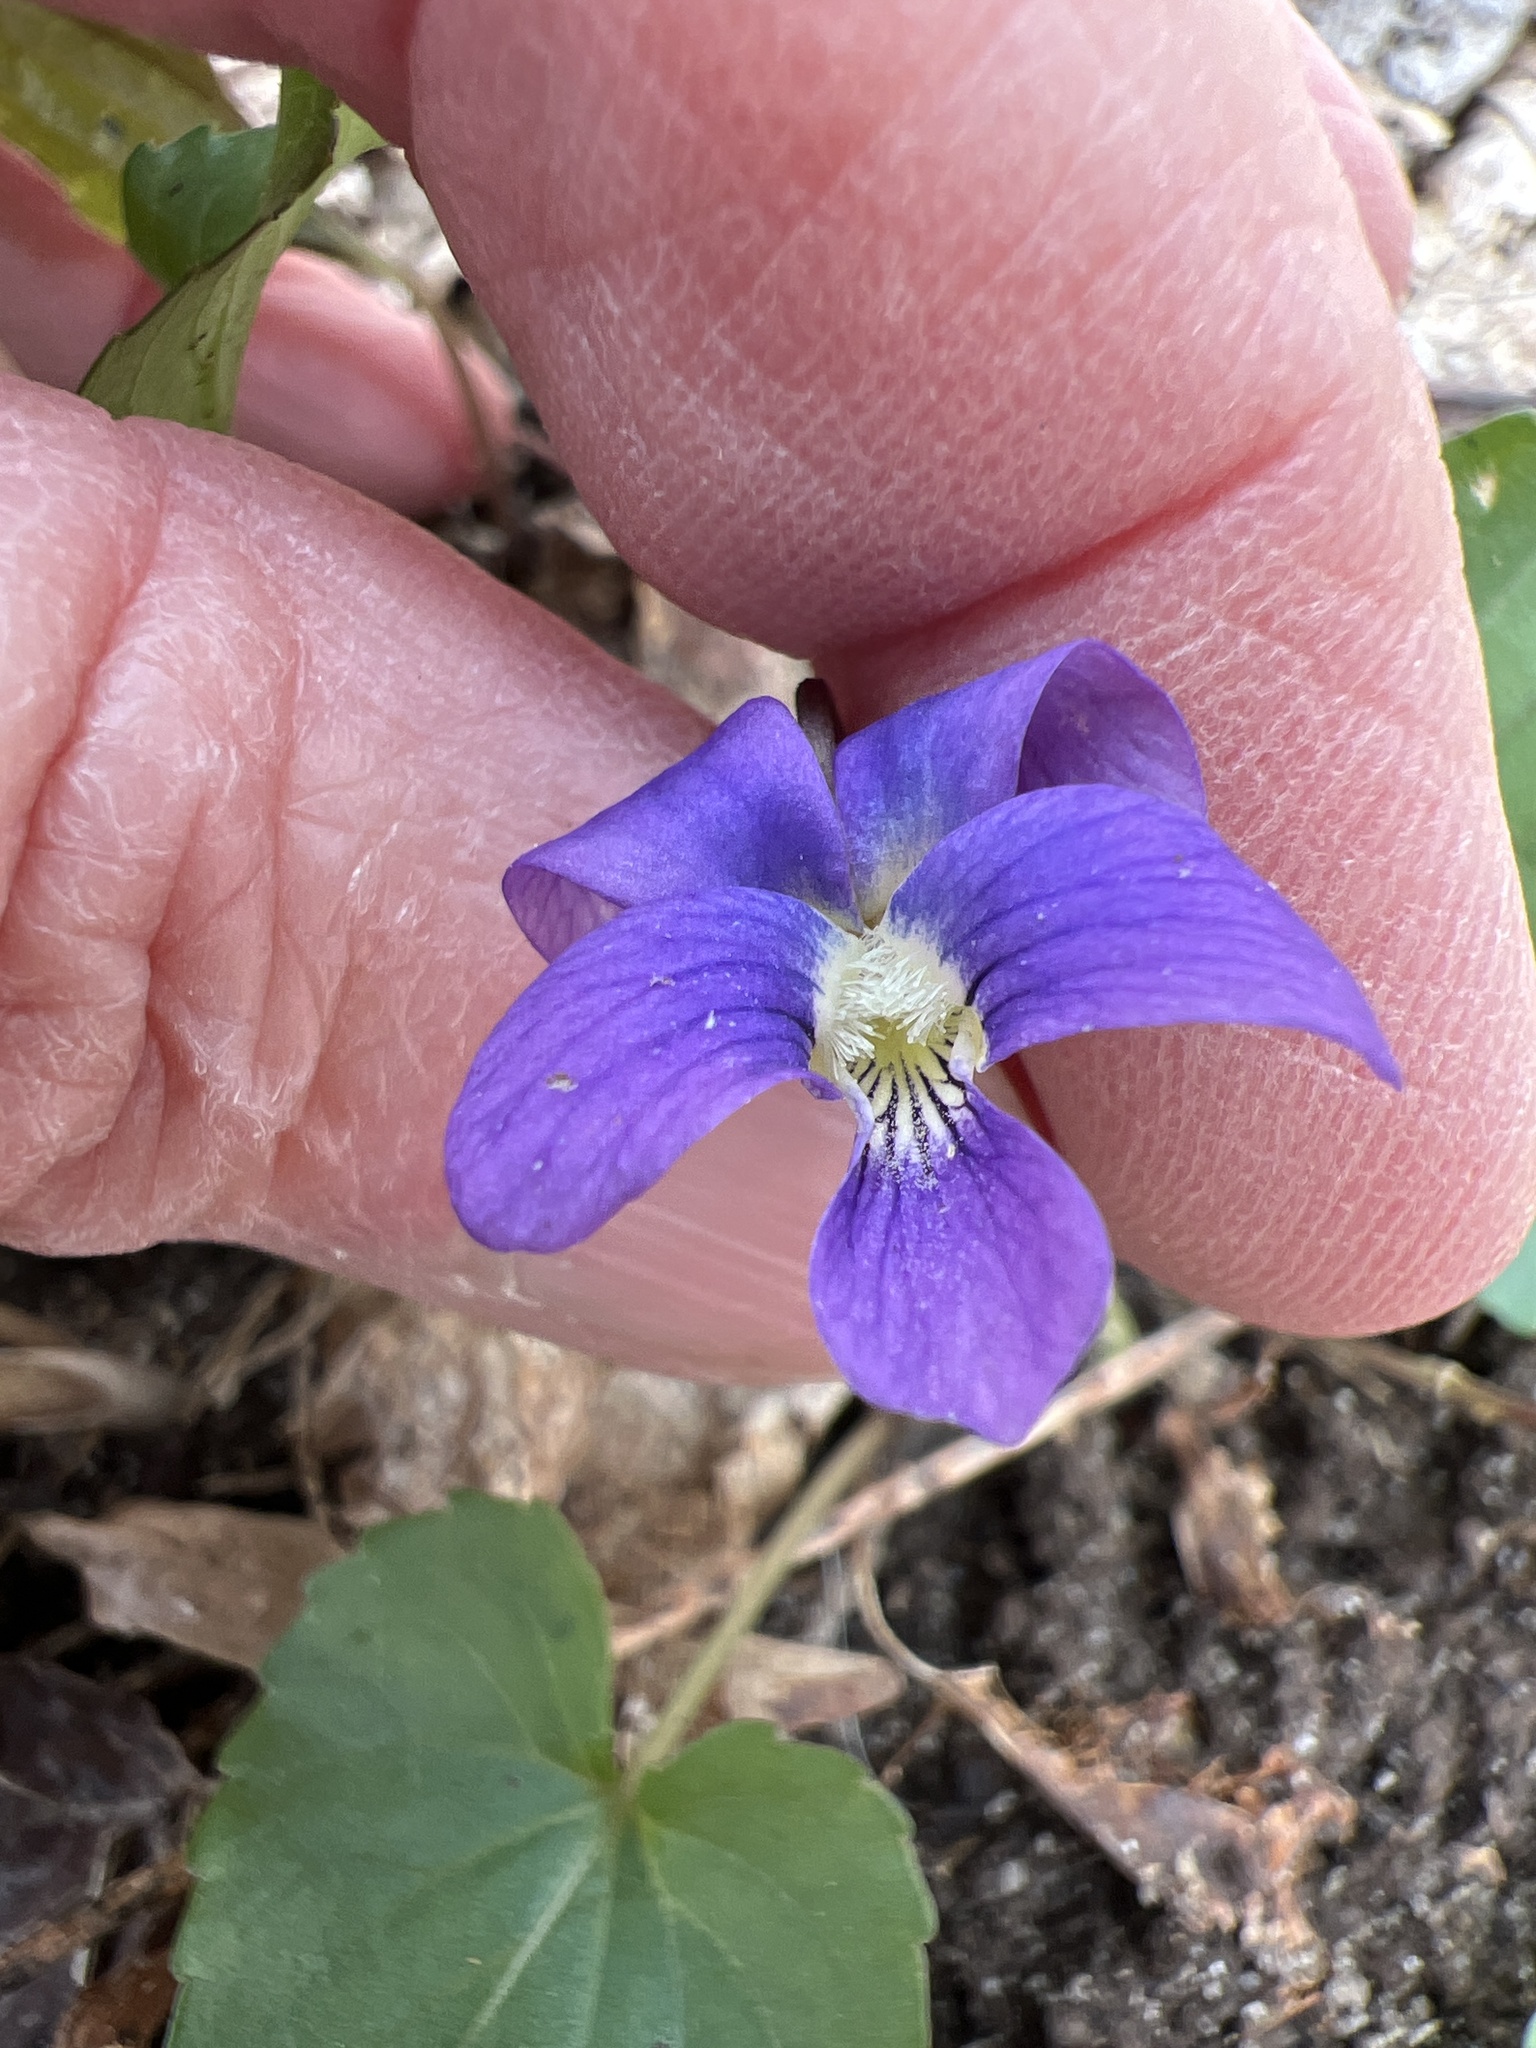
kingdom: Plantae
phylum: Tracheophyta
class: Magnoliopsida
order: Malpighiales
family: Violaceae
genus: Viola
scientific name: Viola sororia
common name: Dooryard violet
